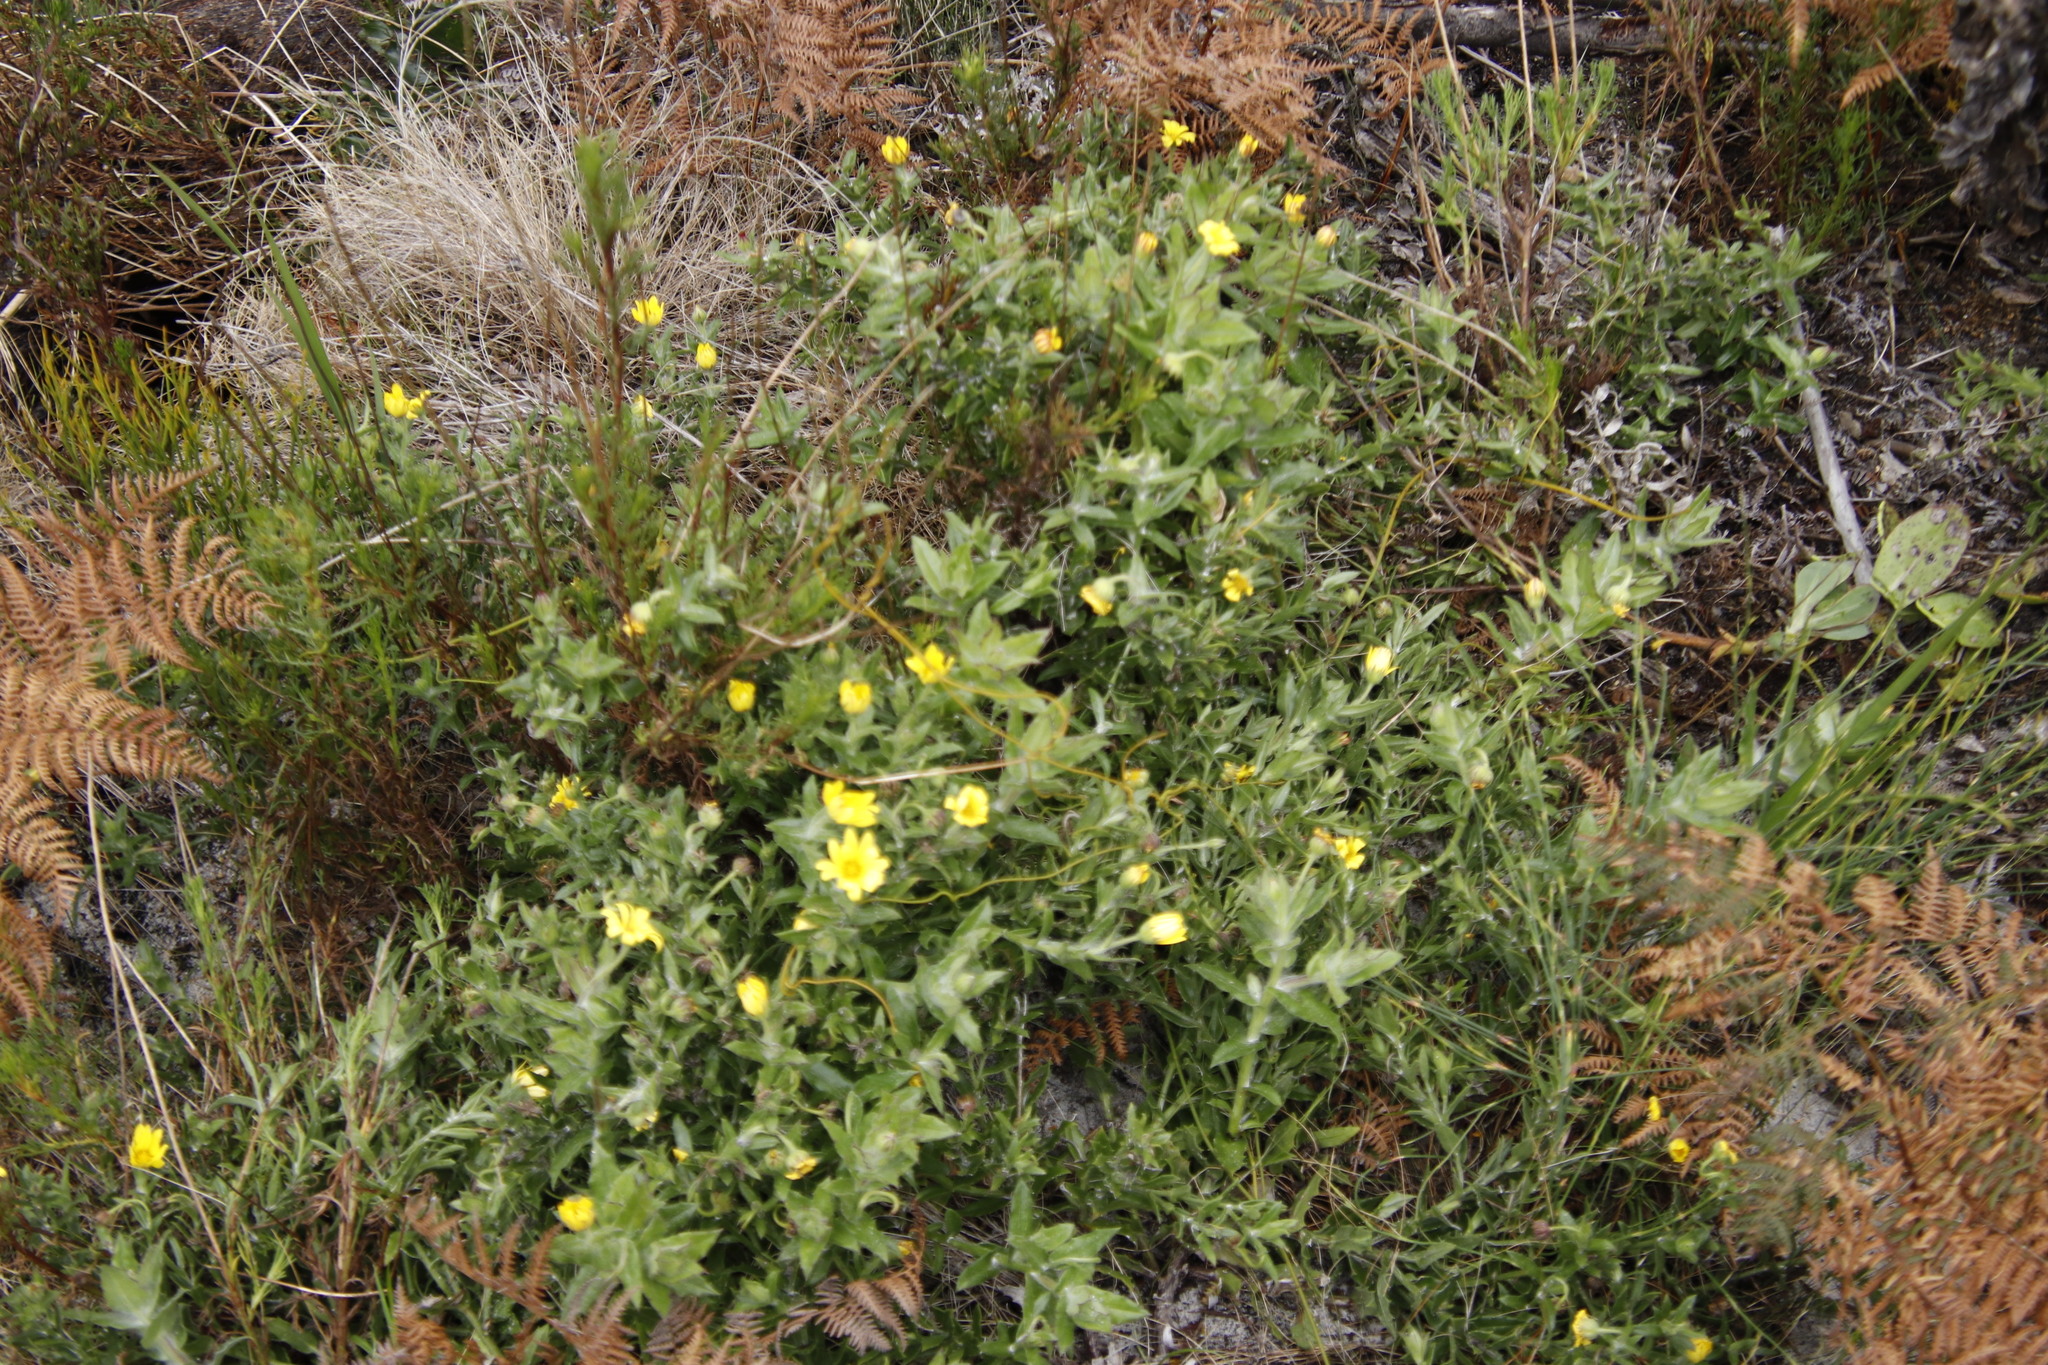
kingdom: Plantae
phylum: Tracheophyta
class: Magnoliopsida
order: Asterales
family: Asteraceae
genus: Osteospermum
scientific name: Osteospermum ilicifolium
